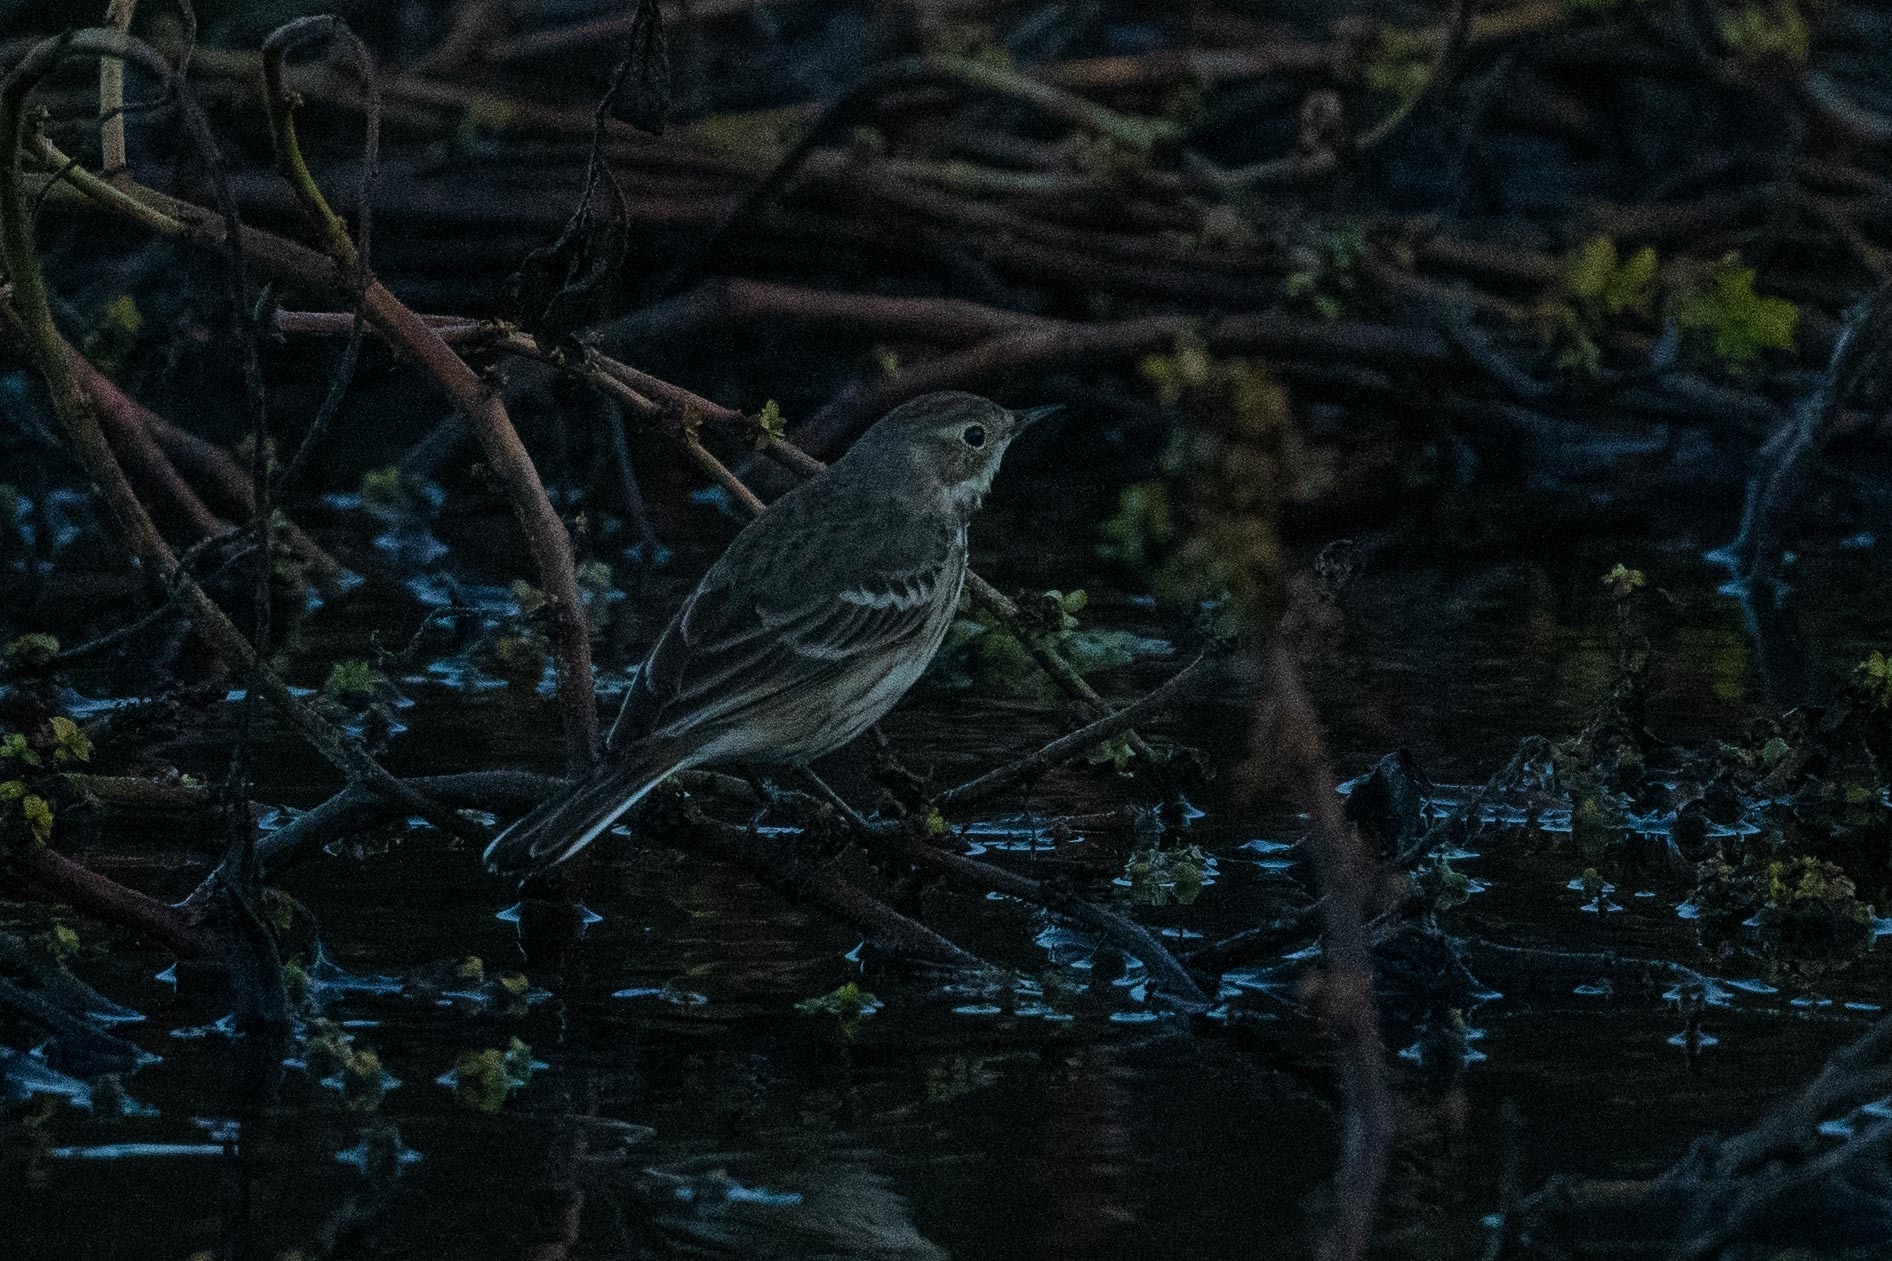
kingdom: Animalia
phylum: Chordata
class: Aves
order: Passeriformes
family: Motacillidae
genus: Anthus
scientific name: Anthus rubescens
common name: Buff-bellied pipit
